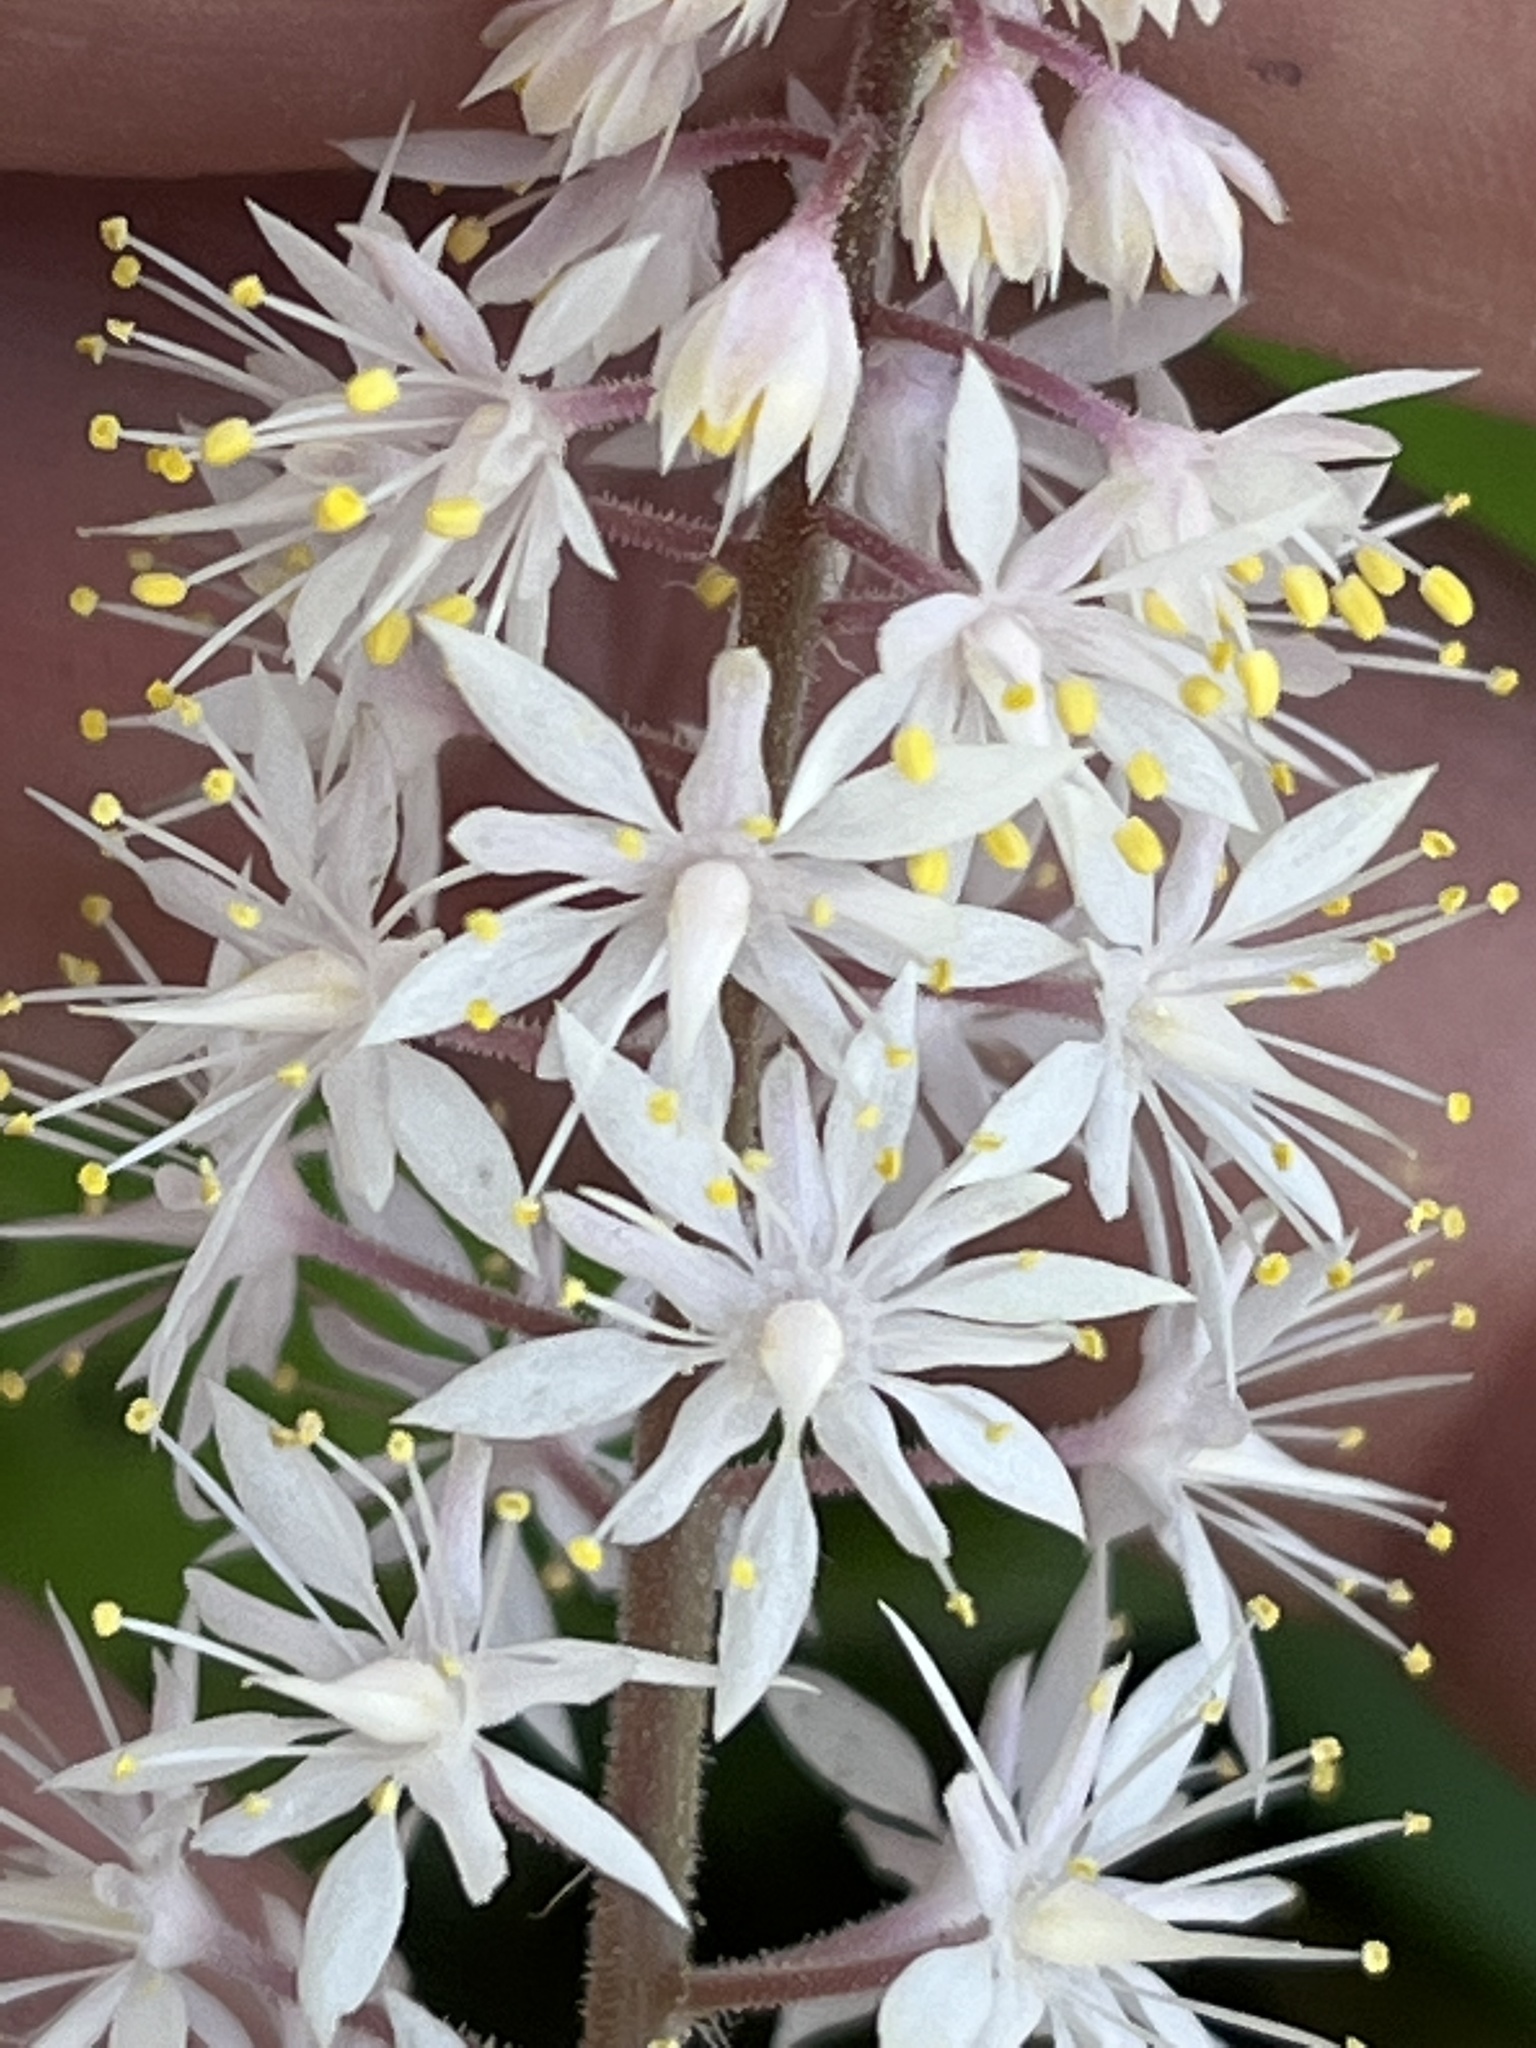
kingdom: Plantae
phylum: Tracheophyta
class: Magnoliopsida
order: Saxifragales
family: Saxifragaceae
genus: Tiarella
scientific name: Tiarella wherryi
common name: Tufted foamflower
